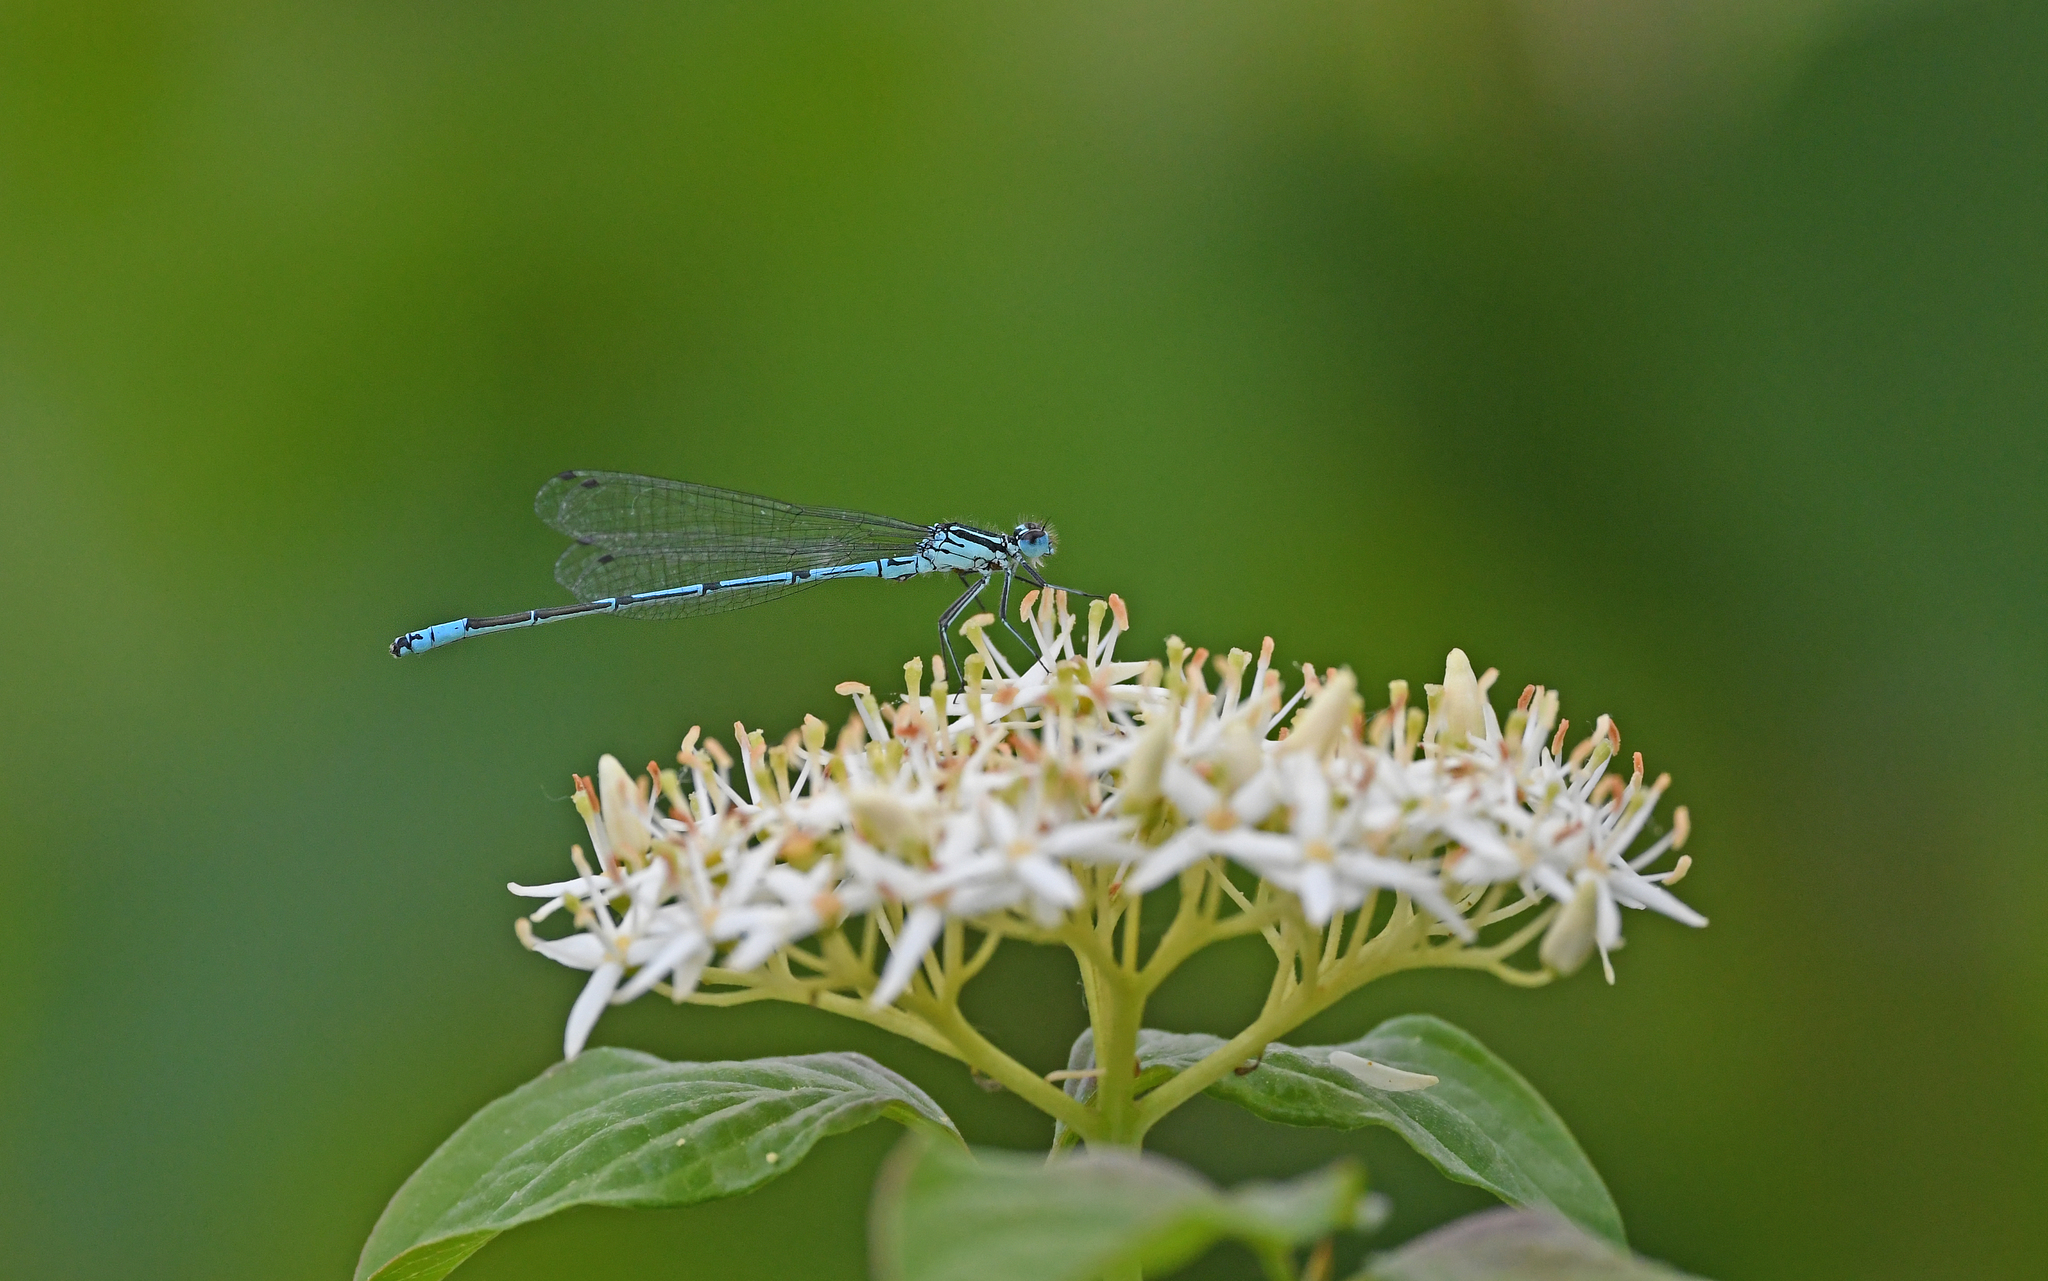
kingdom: Animalia
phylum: Arthropoda
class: Insecta
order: Odonata
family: Coenagrionidae
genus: Coenagrion
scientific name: Coenagrion puella
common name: Azure damselfly
